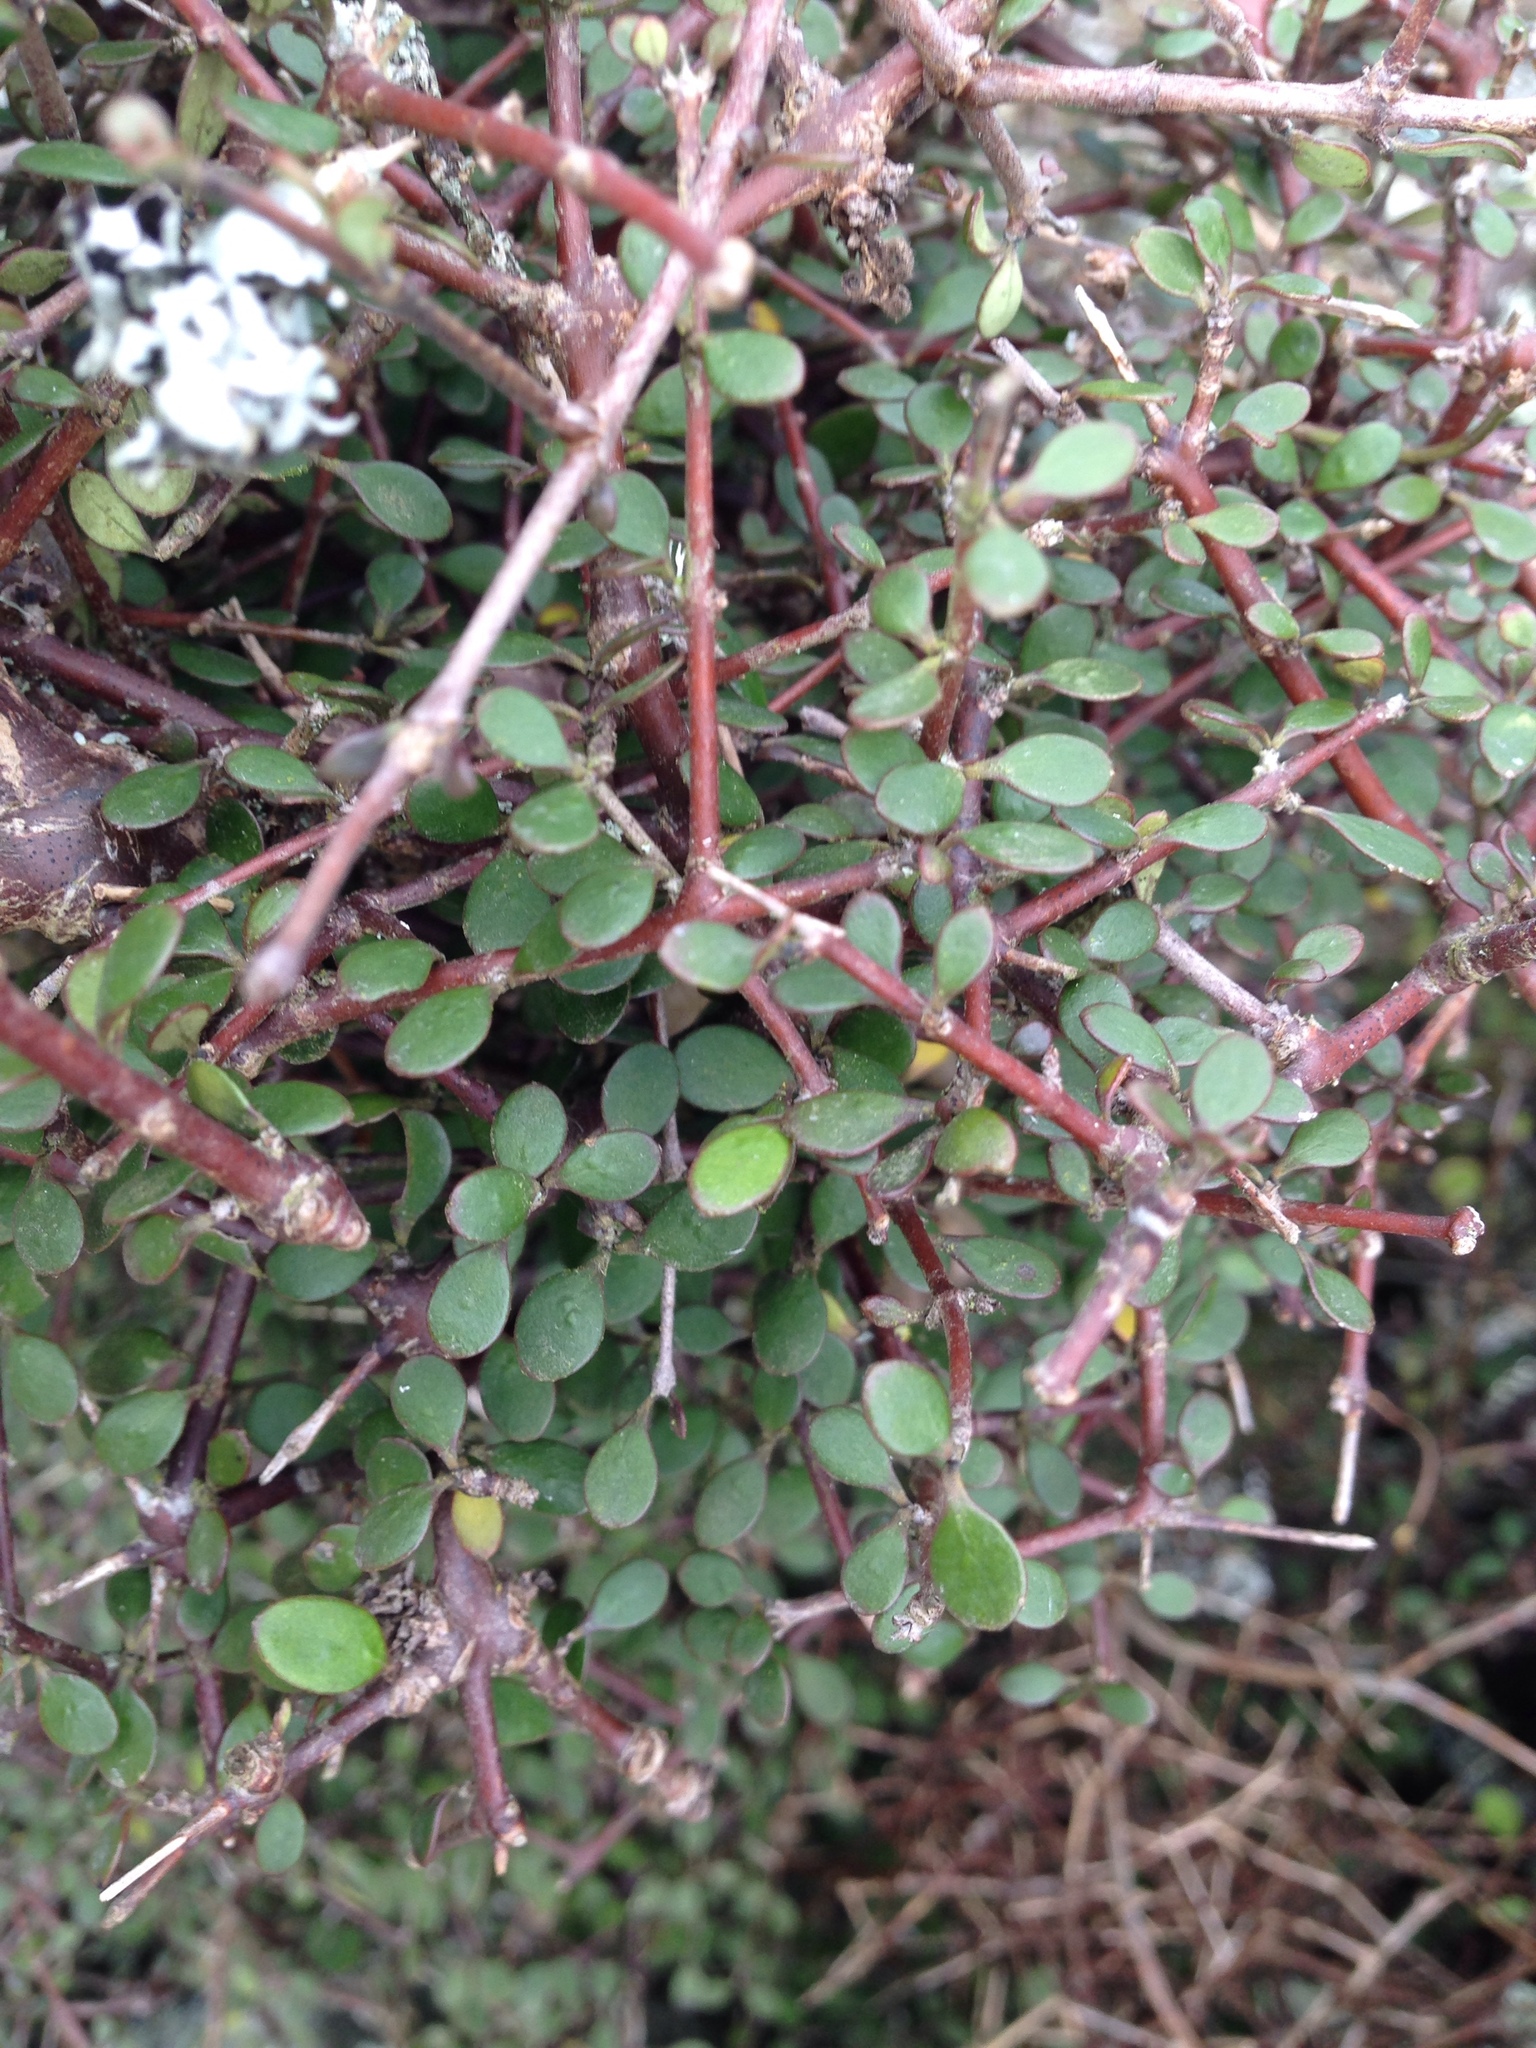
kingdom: Plantae
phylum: Tracheophyta
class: Magnoliopsida
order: Gentianales
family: Rubiaceae
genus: Coprosma
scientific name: Coprosma crassifolia
